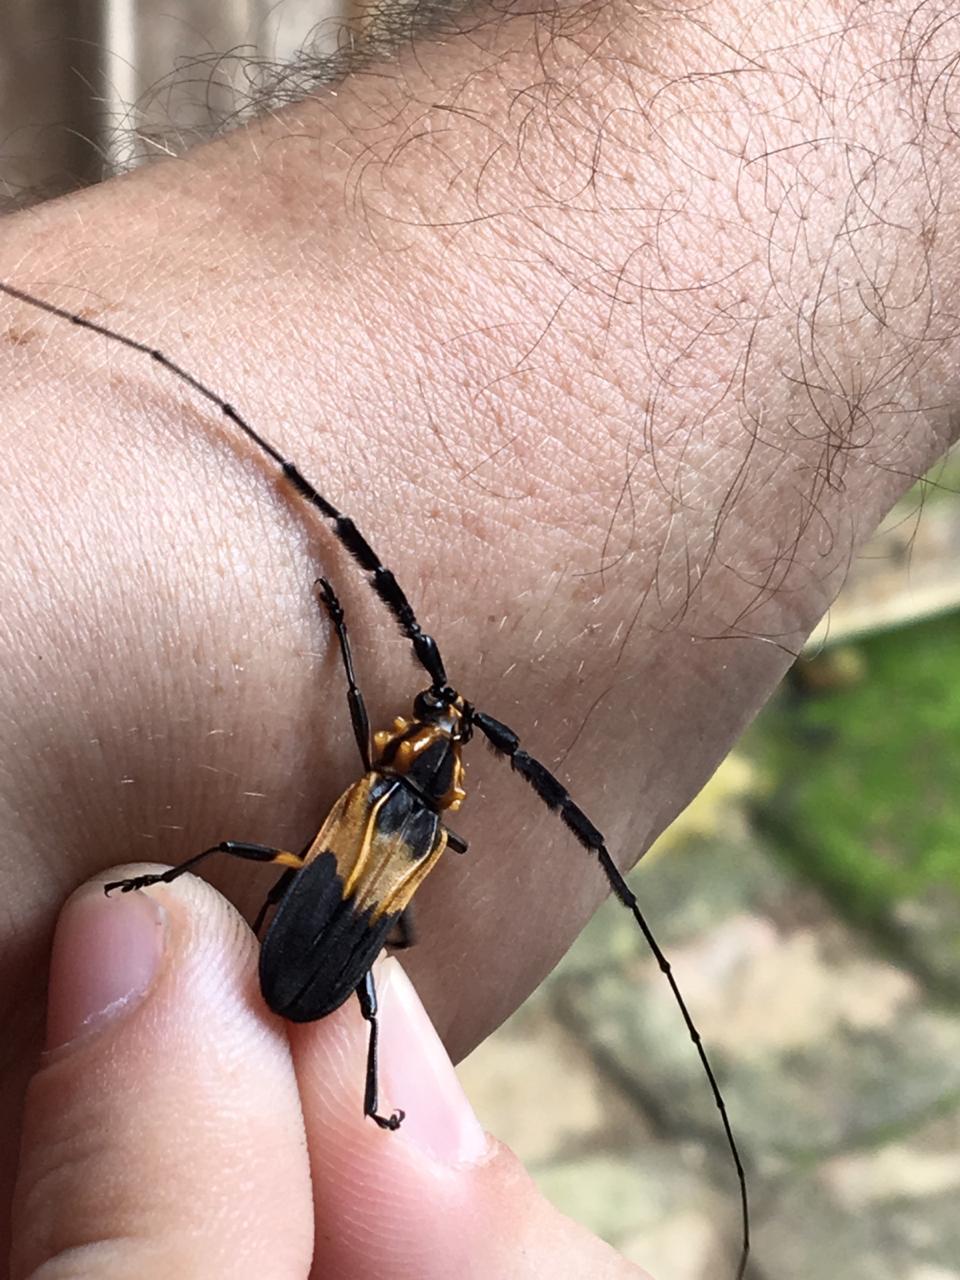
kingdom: Animalia
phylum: Arthropoda
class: Insecta
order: Coleoptera
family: Cerambycidae
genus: Batus
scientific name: Batus hirticornis
